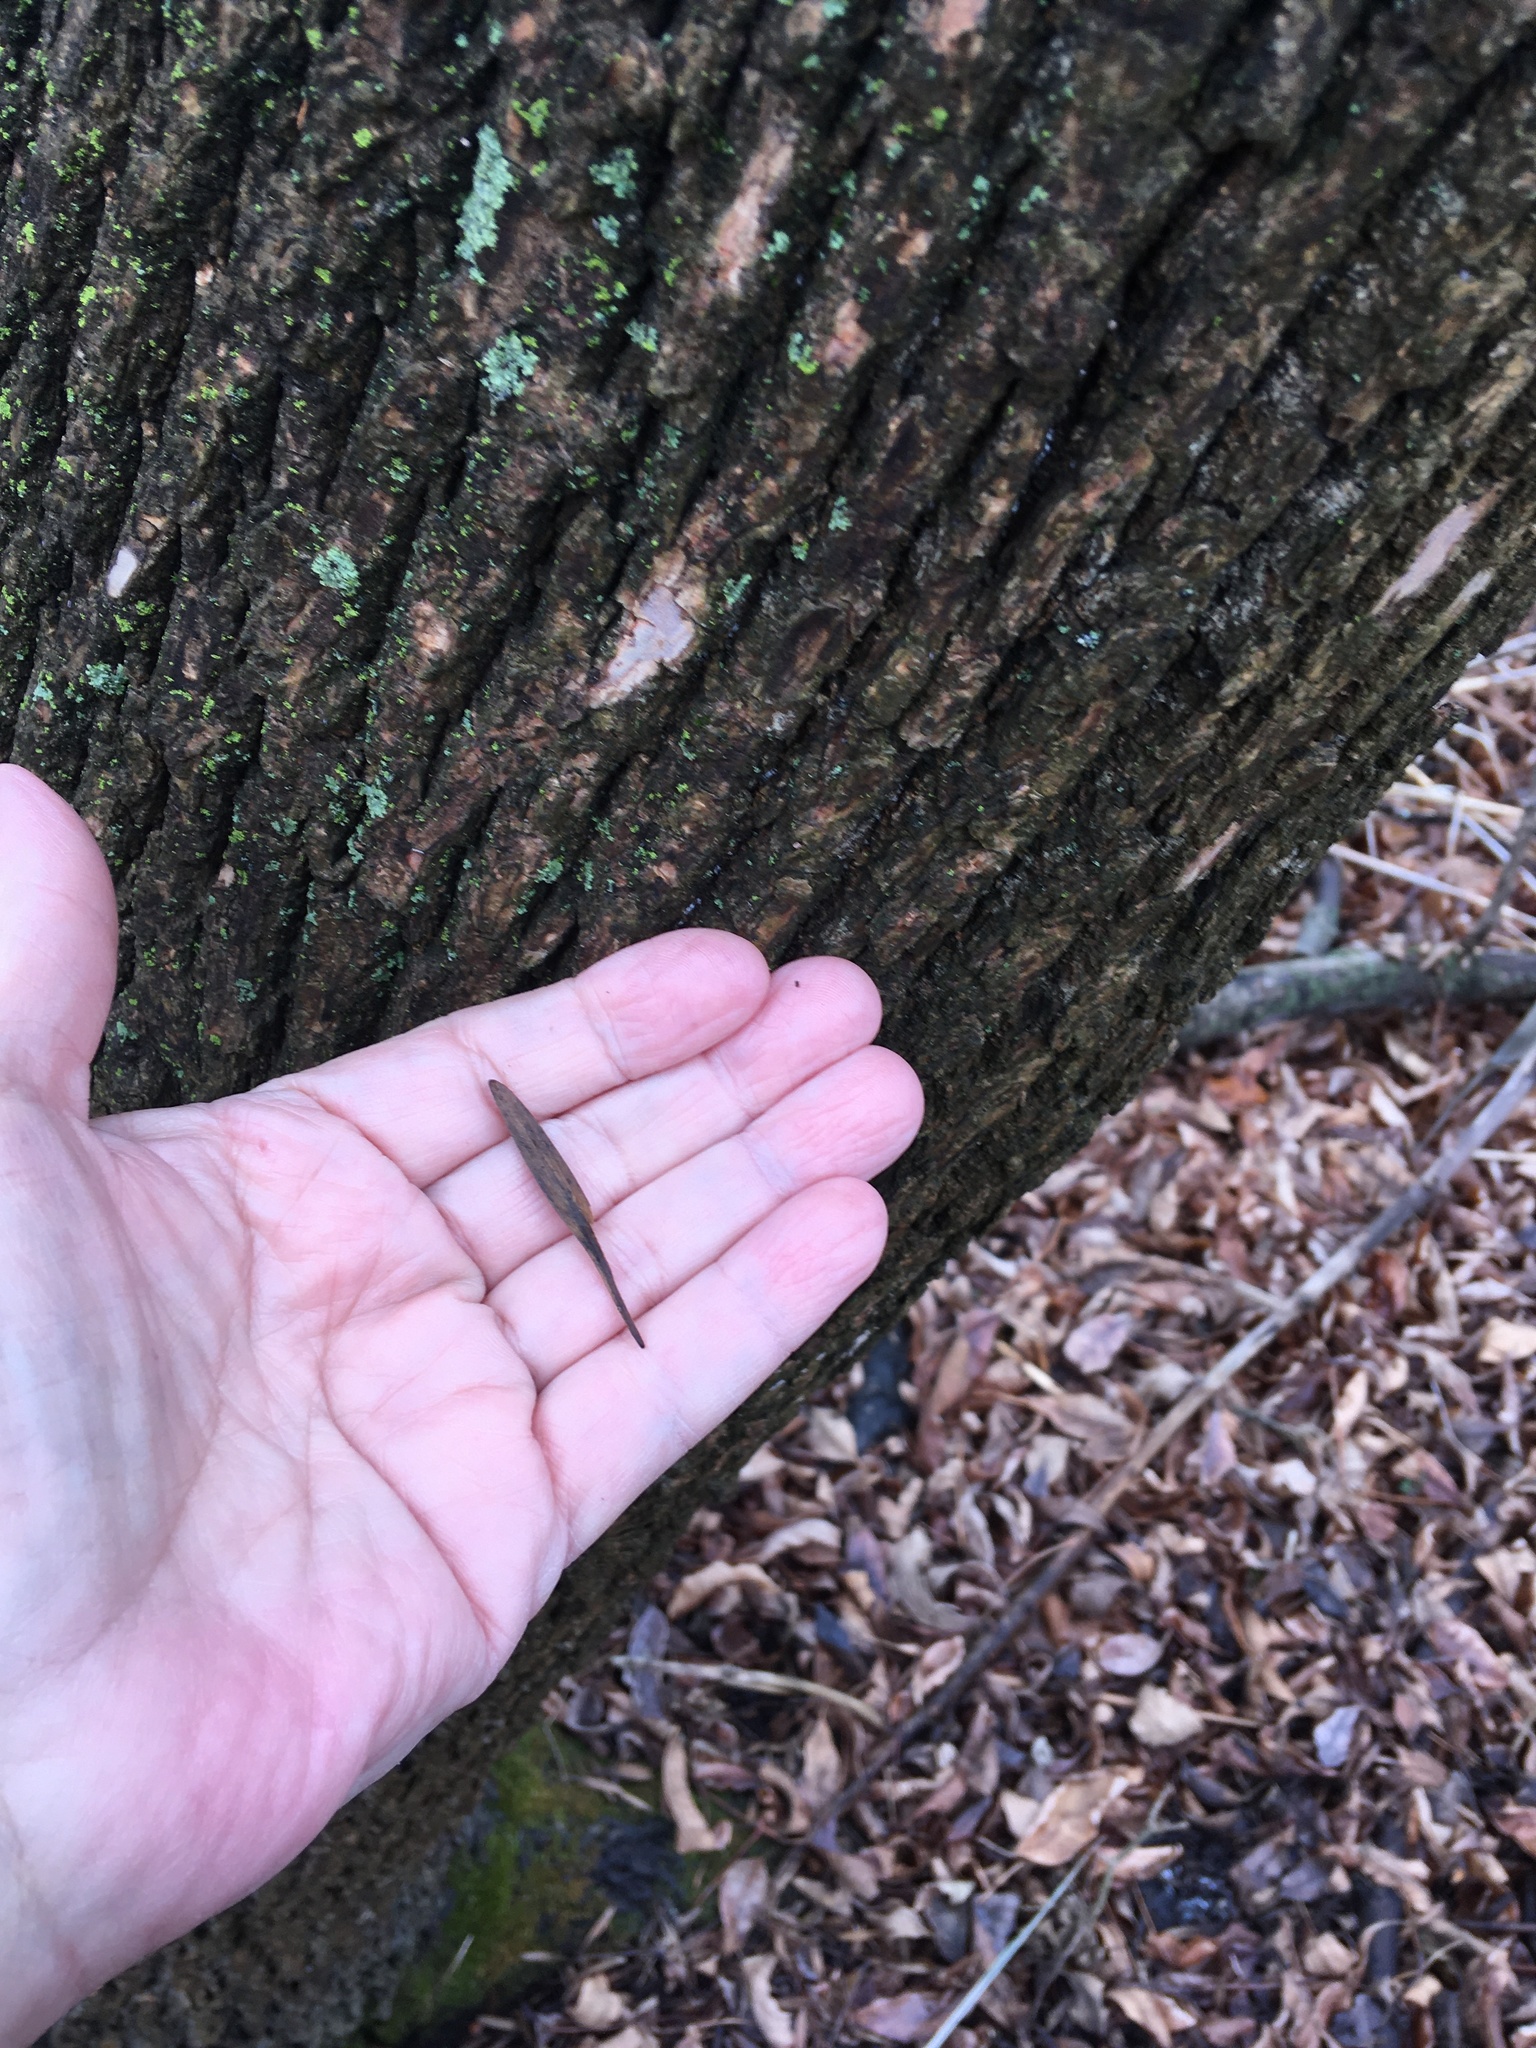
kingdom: Plantae
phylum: Tracheophyta
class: Magnoliopsida
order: Lamiales
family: Oleaceae
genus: Fraxinus
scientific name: Fraxinus pennsylvanica
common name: Green ash
